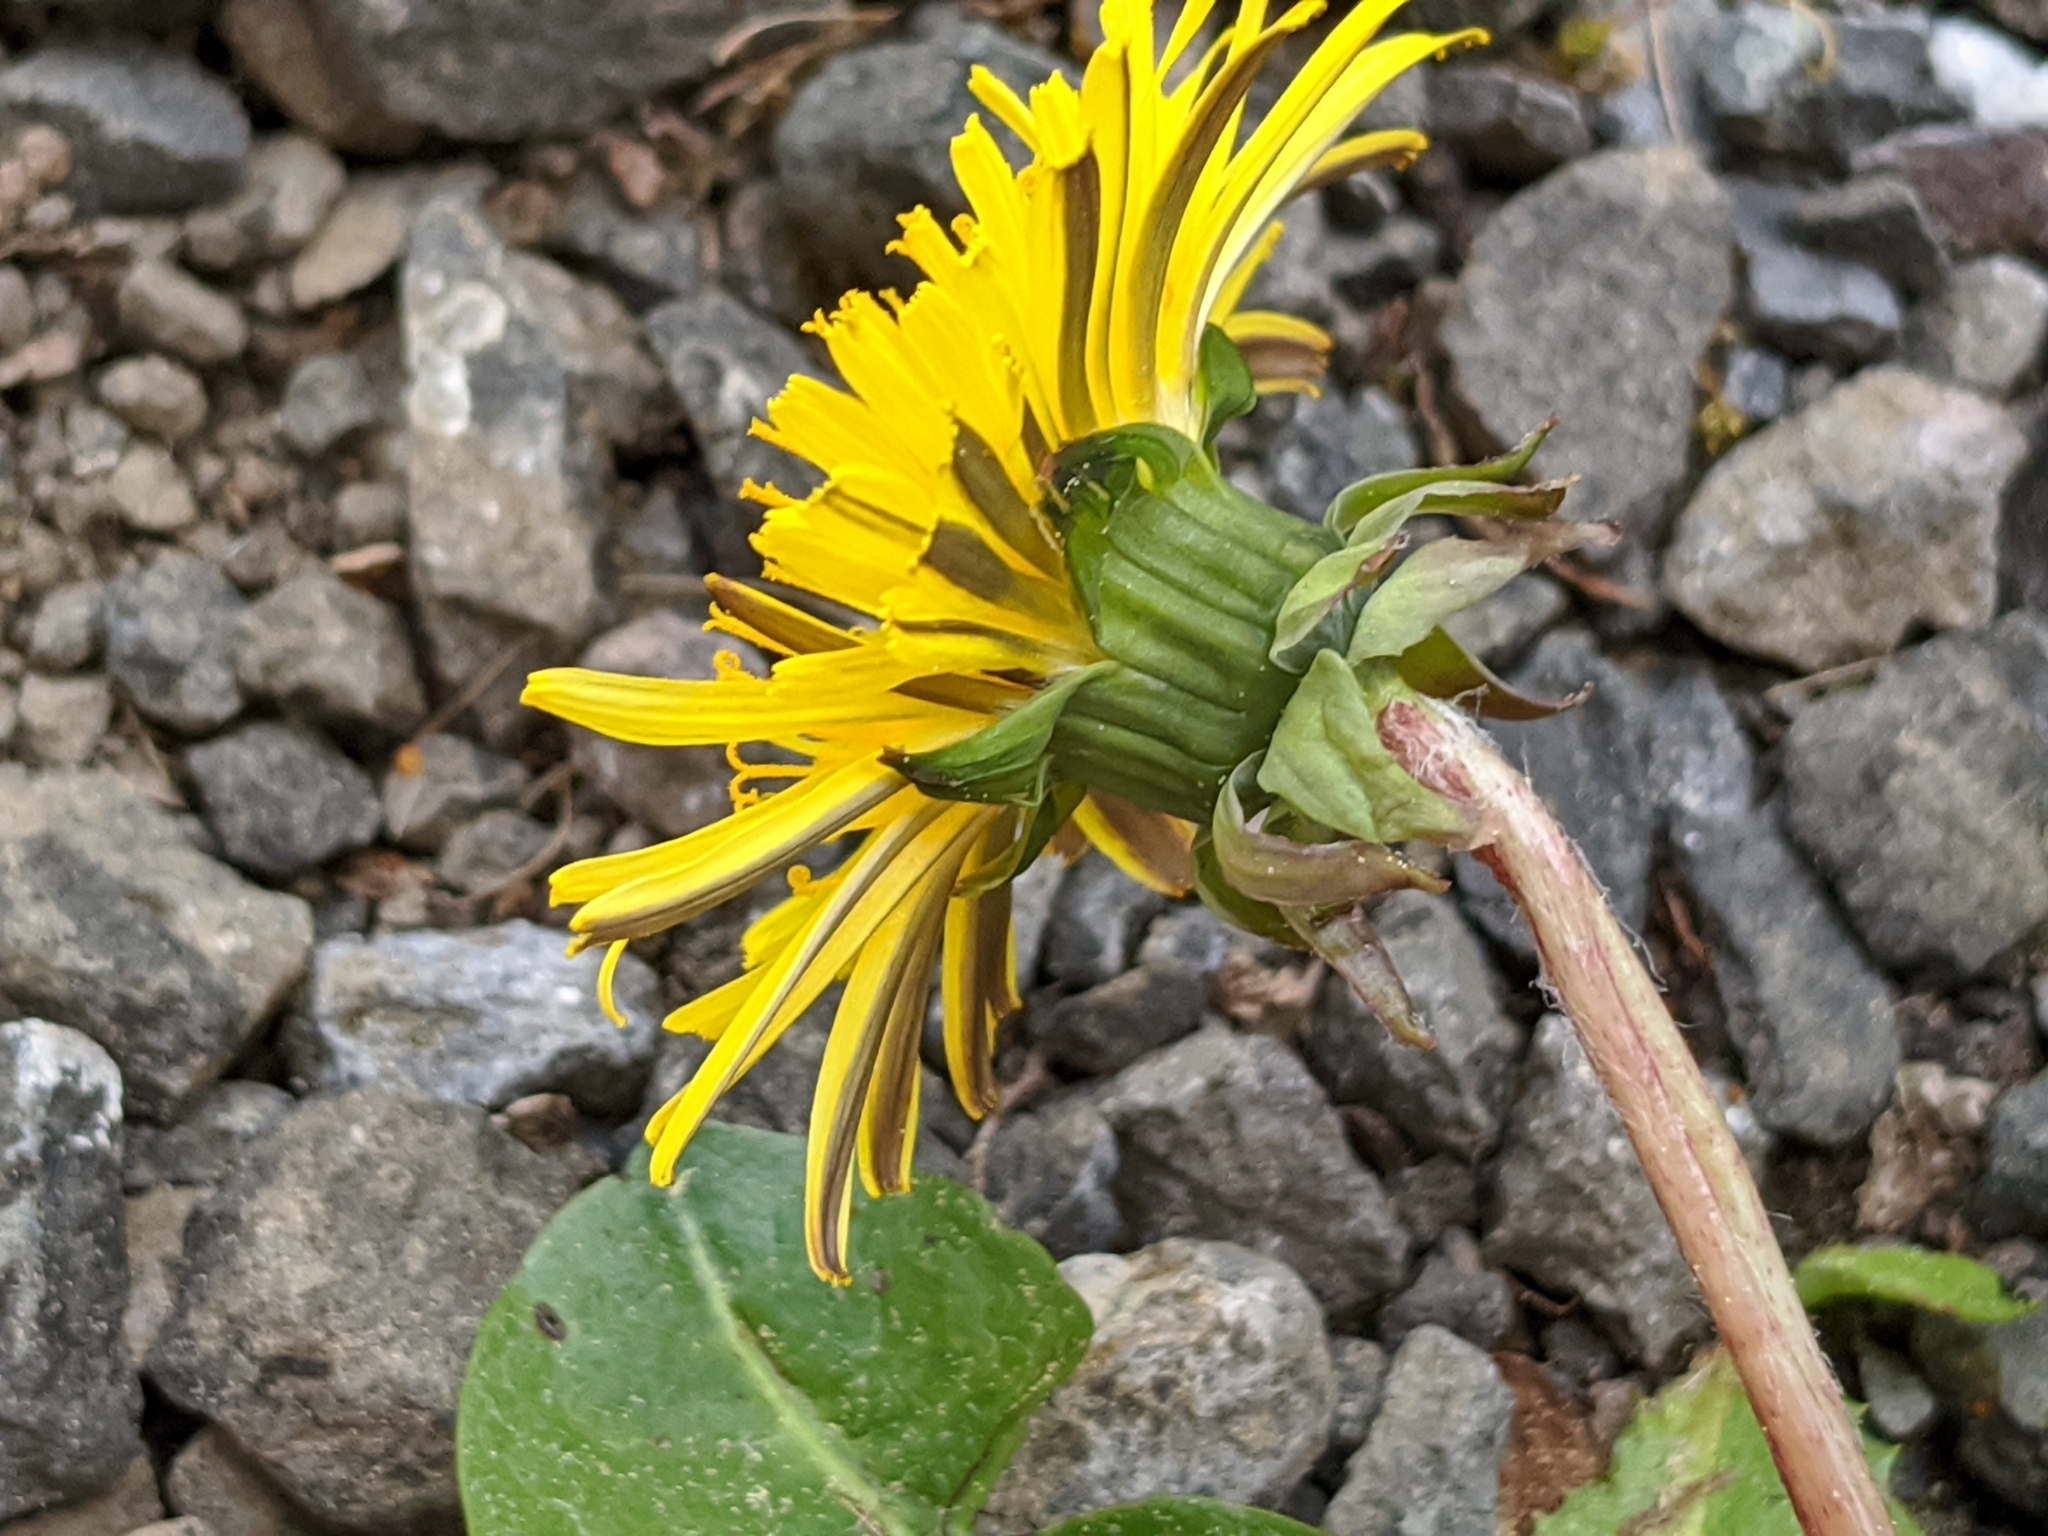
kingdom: Plantae
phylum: Tracheophyta
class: Magnoliopsida
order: Asterales
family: Asteraceae
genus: Taraxacum
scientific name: Taraxacum officinale
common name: Common dandelion
